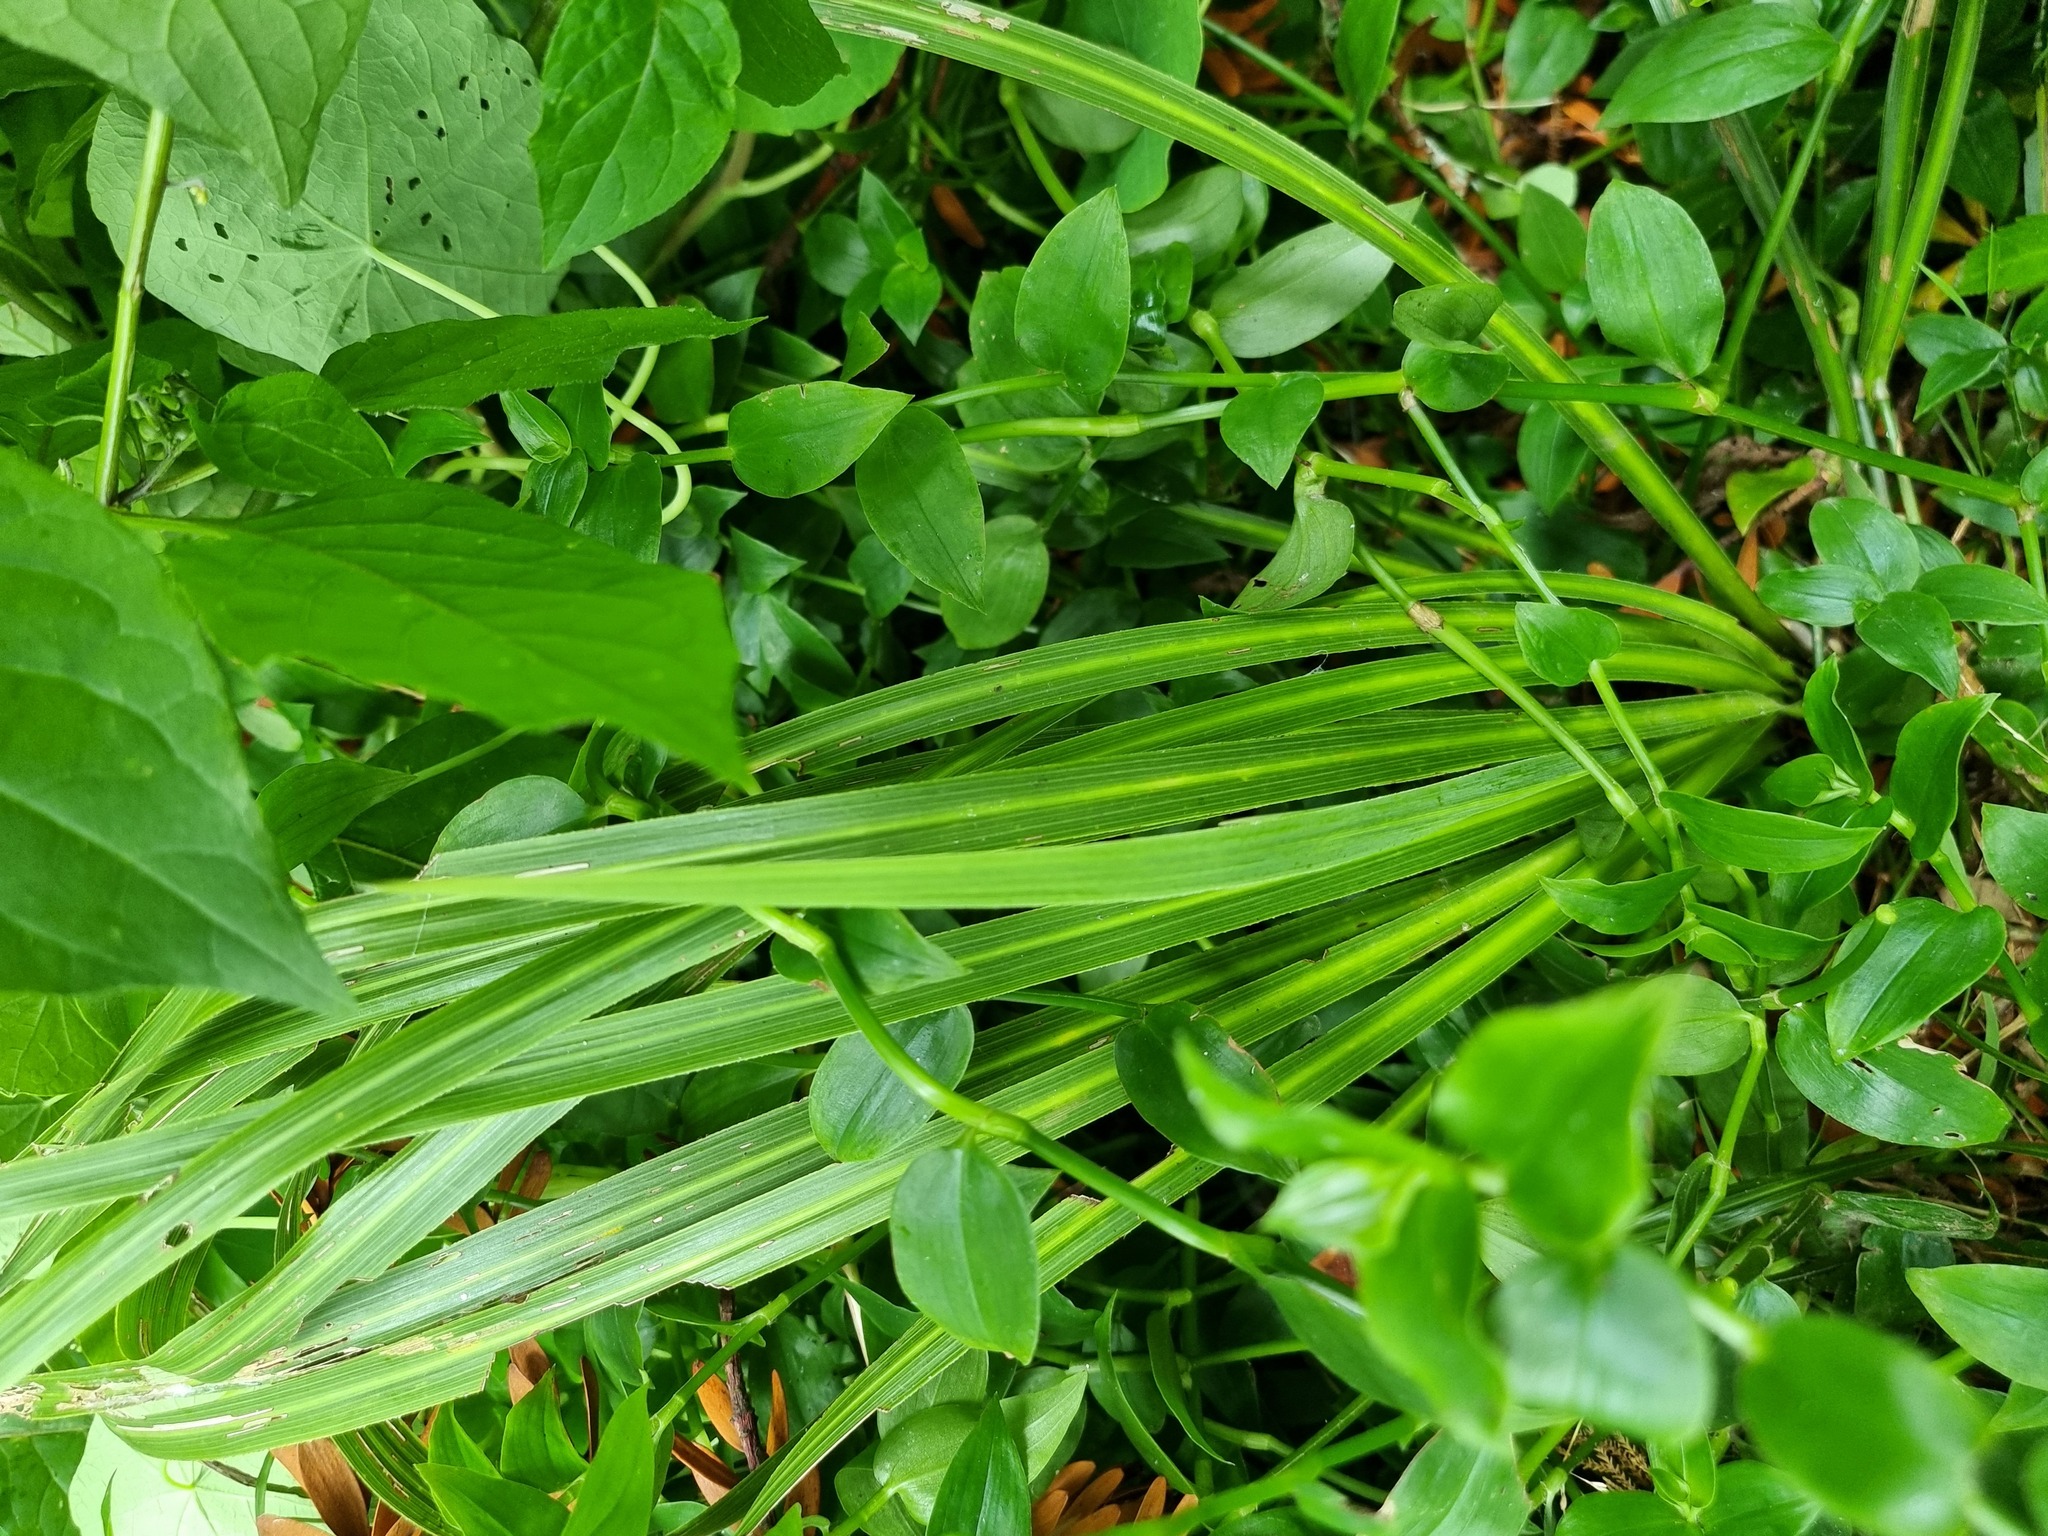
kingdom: Plantae
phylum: Tracheophyta
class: Liliopsida
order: Asparagales
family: Asparagaceae
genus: Cordyline
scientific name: Cordyline australis
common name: Cabbage-palm
